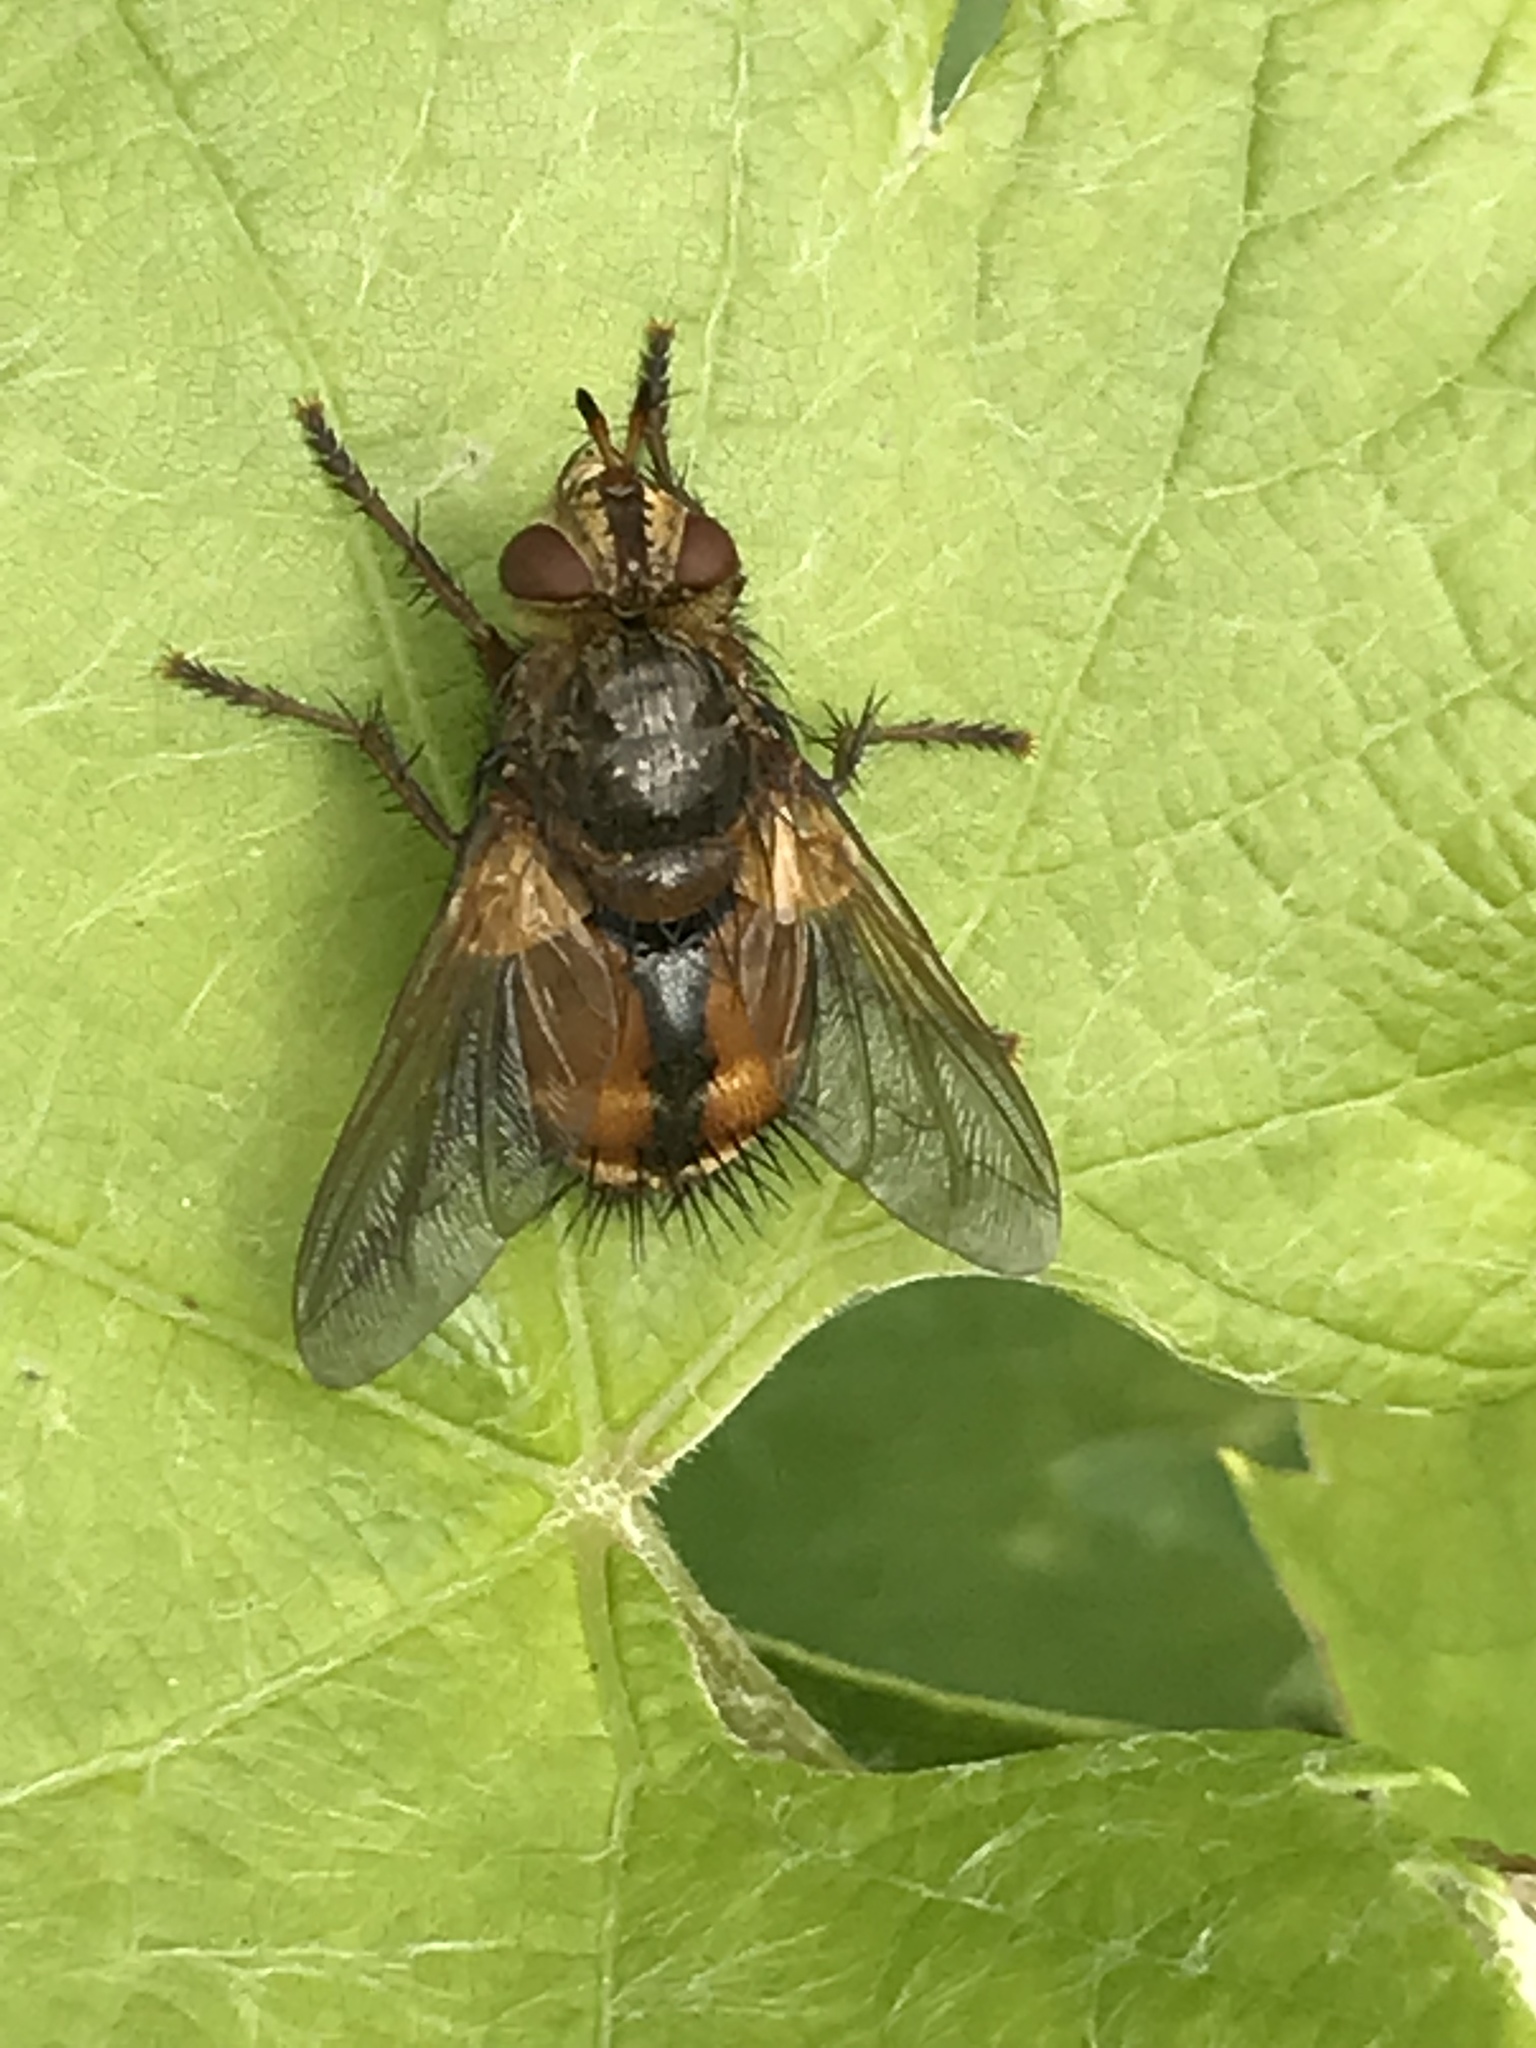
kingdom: Animalia
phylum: Arthropoda
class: Insecta
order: Diptera
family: Tachinidae
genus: Tachina
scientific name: Tachina fera
